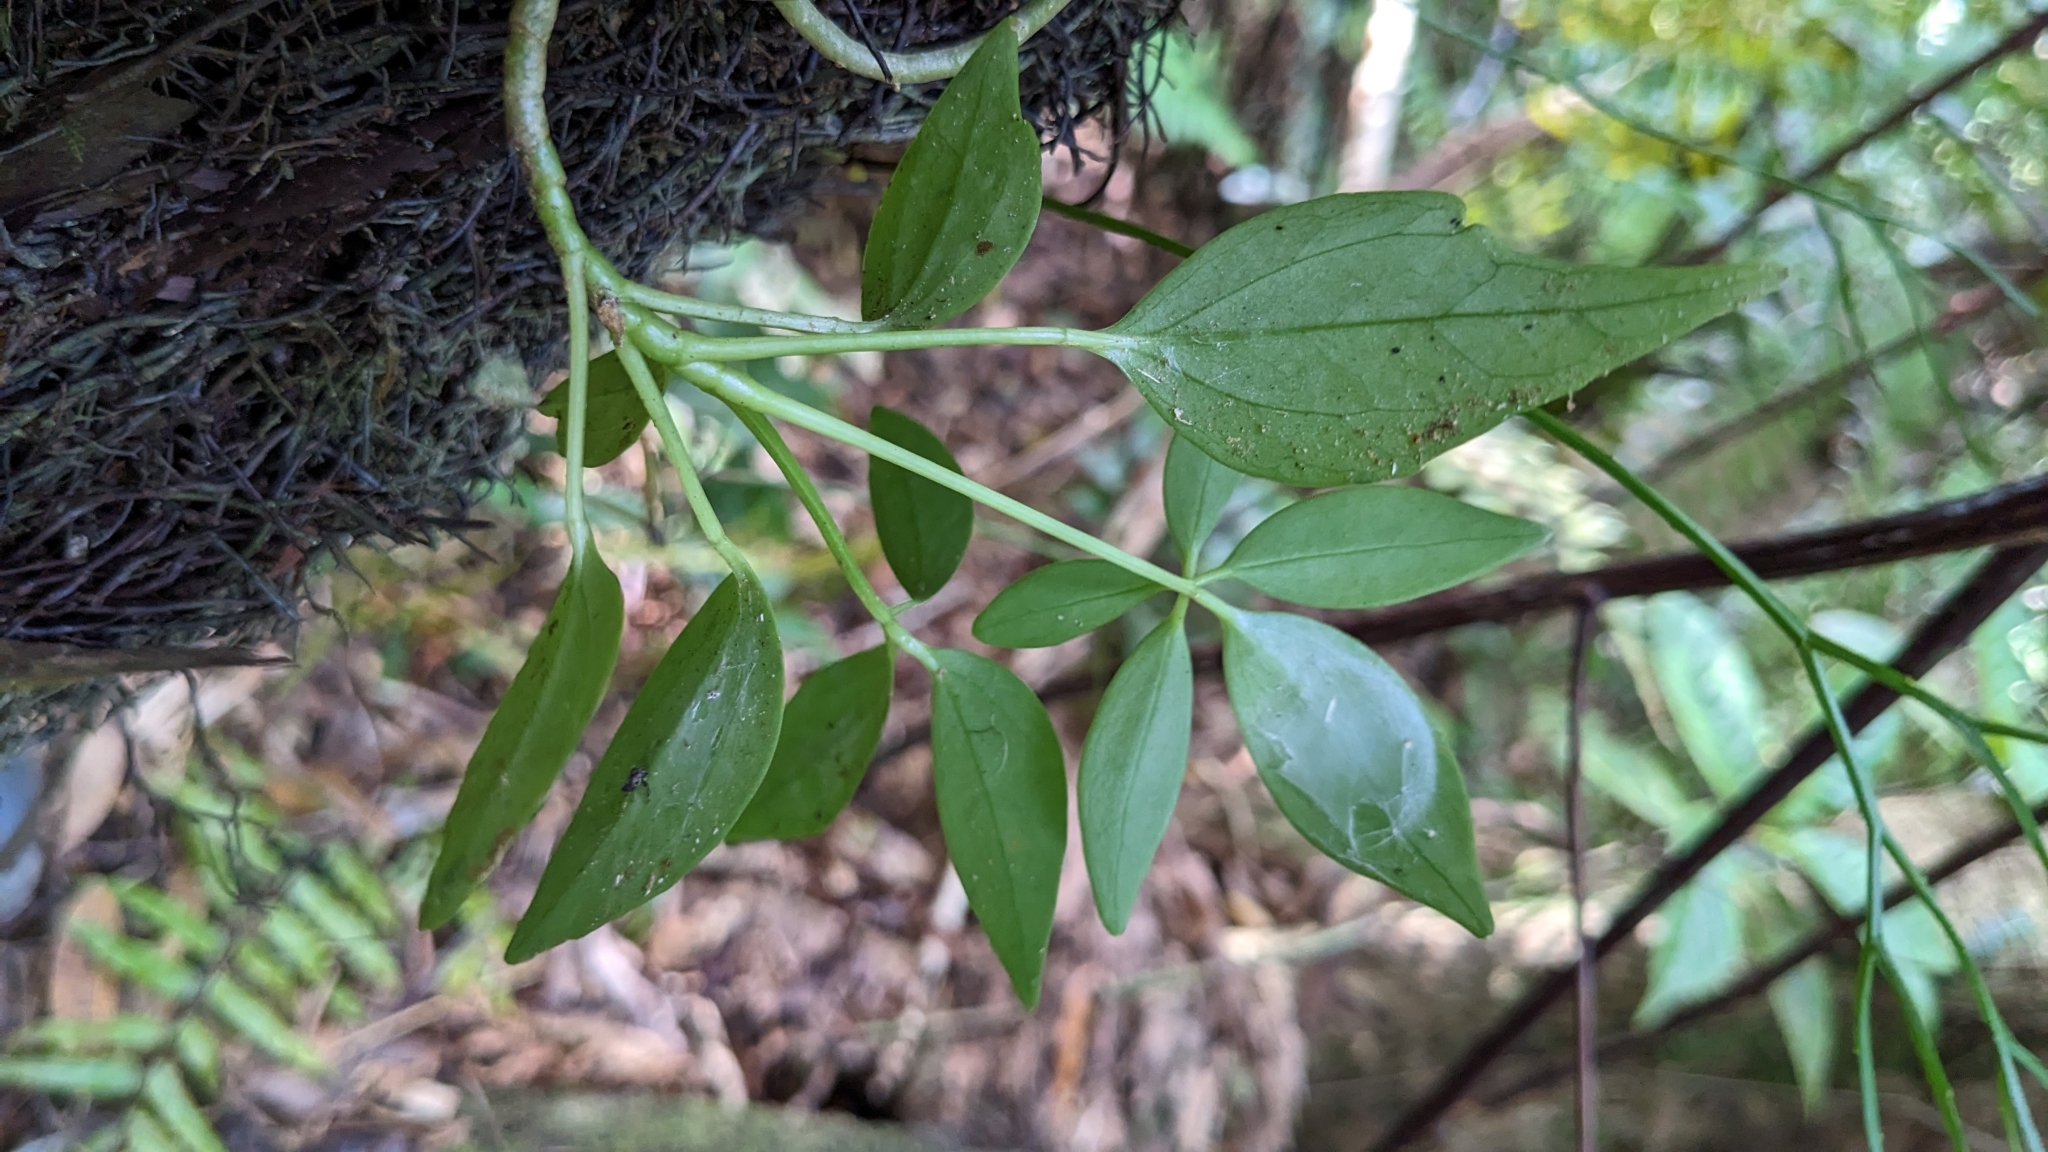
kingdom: Plantae
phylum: Tracheophyta
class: Magnoliopsida
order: Apiales
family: Araliaceae
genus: Heptapleurum
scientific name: Heptapleurum arboricola
